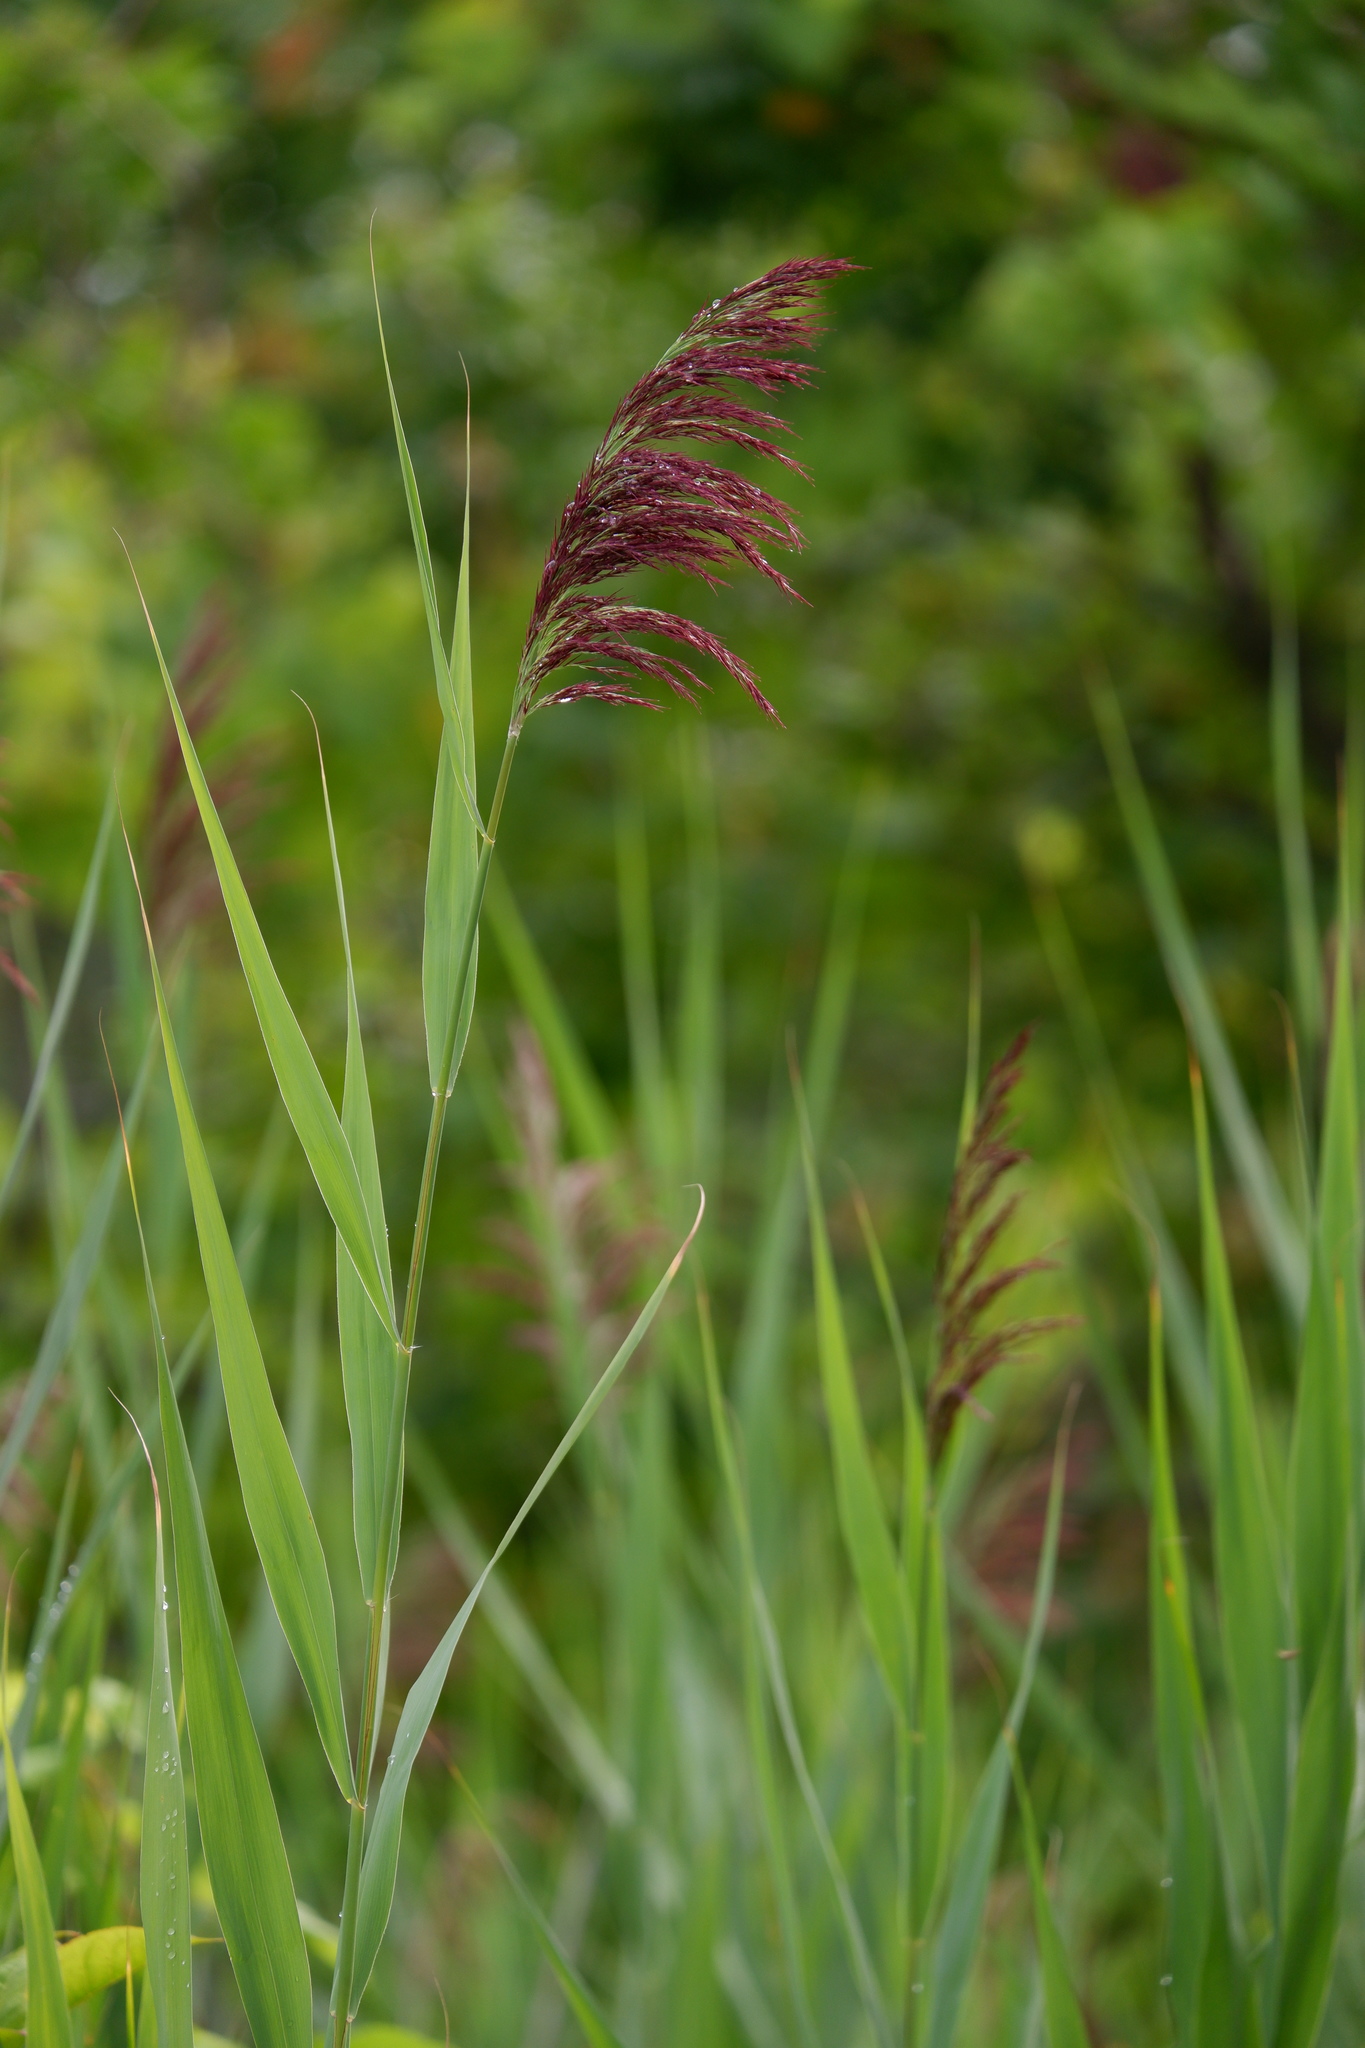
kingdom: Plantae
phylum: Tracheophyta
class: Liliopsida
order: Poales
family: Poaceae
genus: Phragmites
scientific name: Phragmites australis
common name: Common reed
